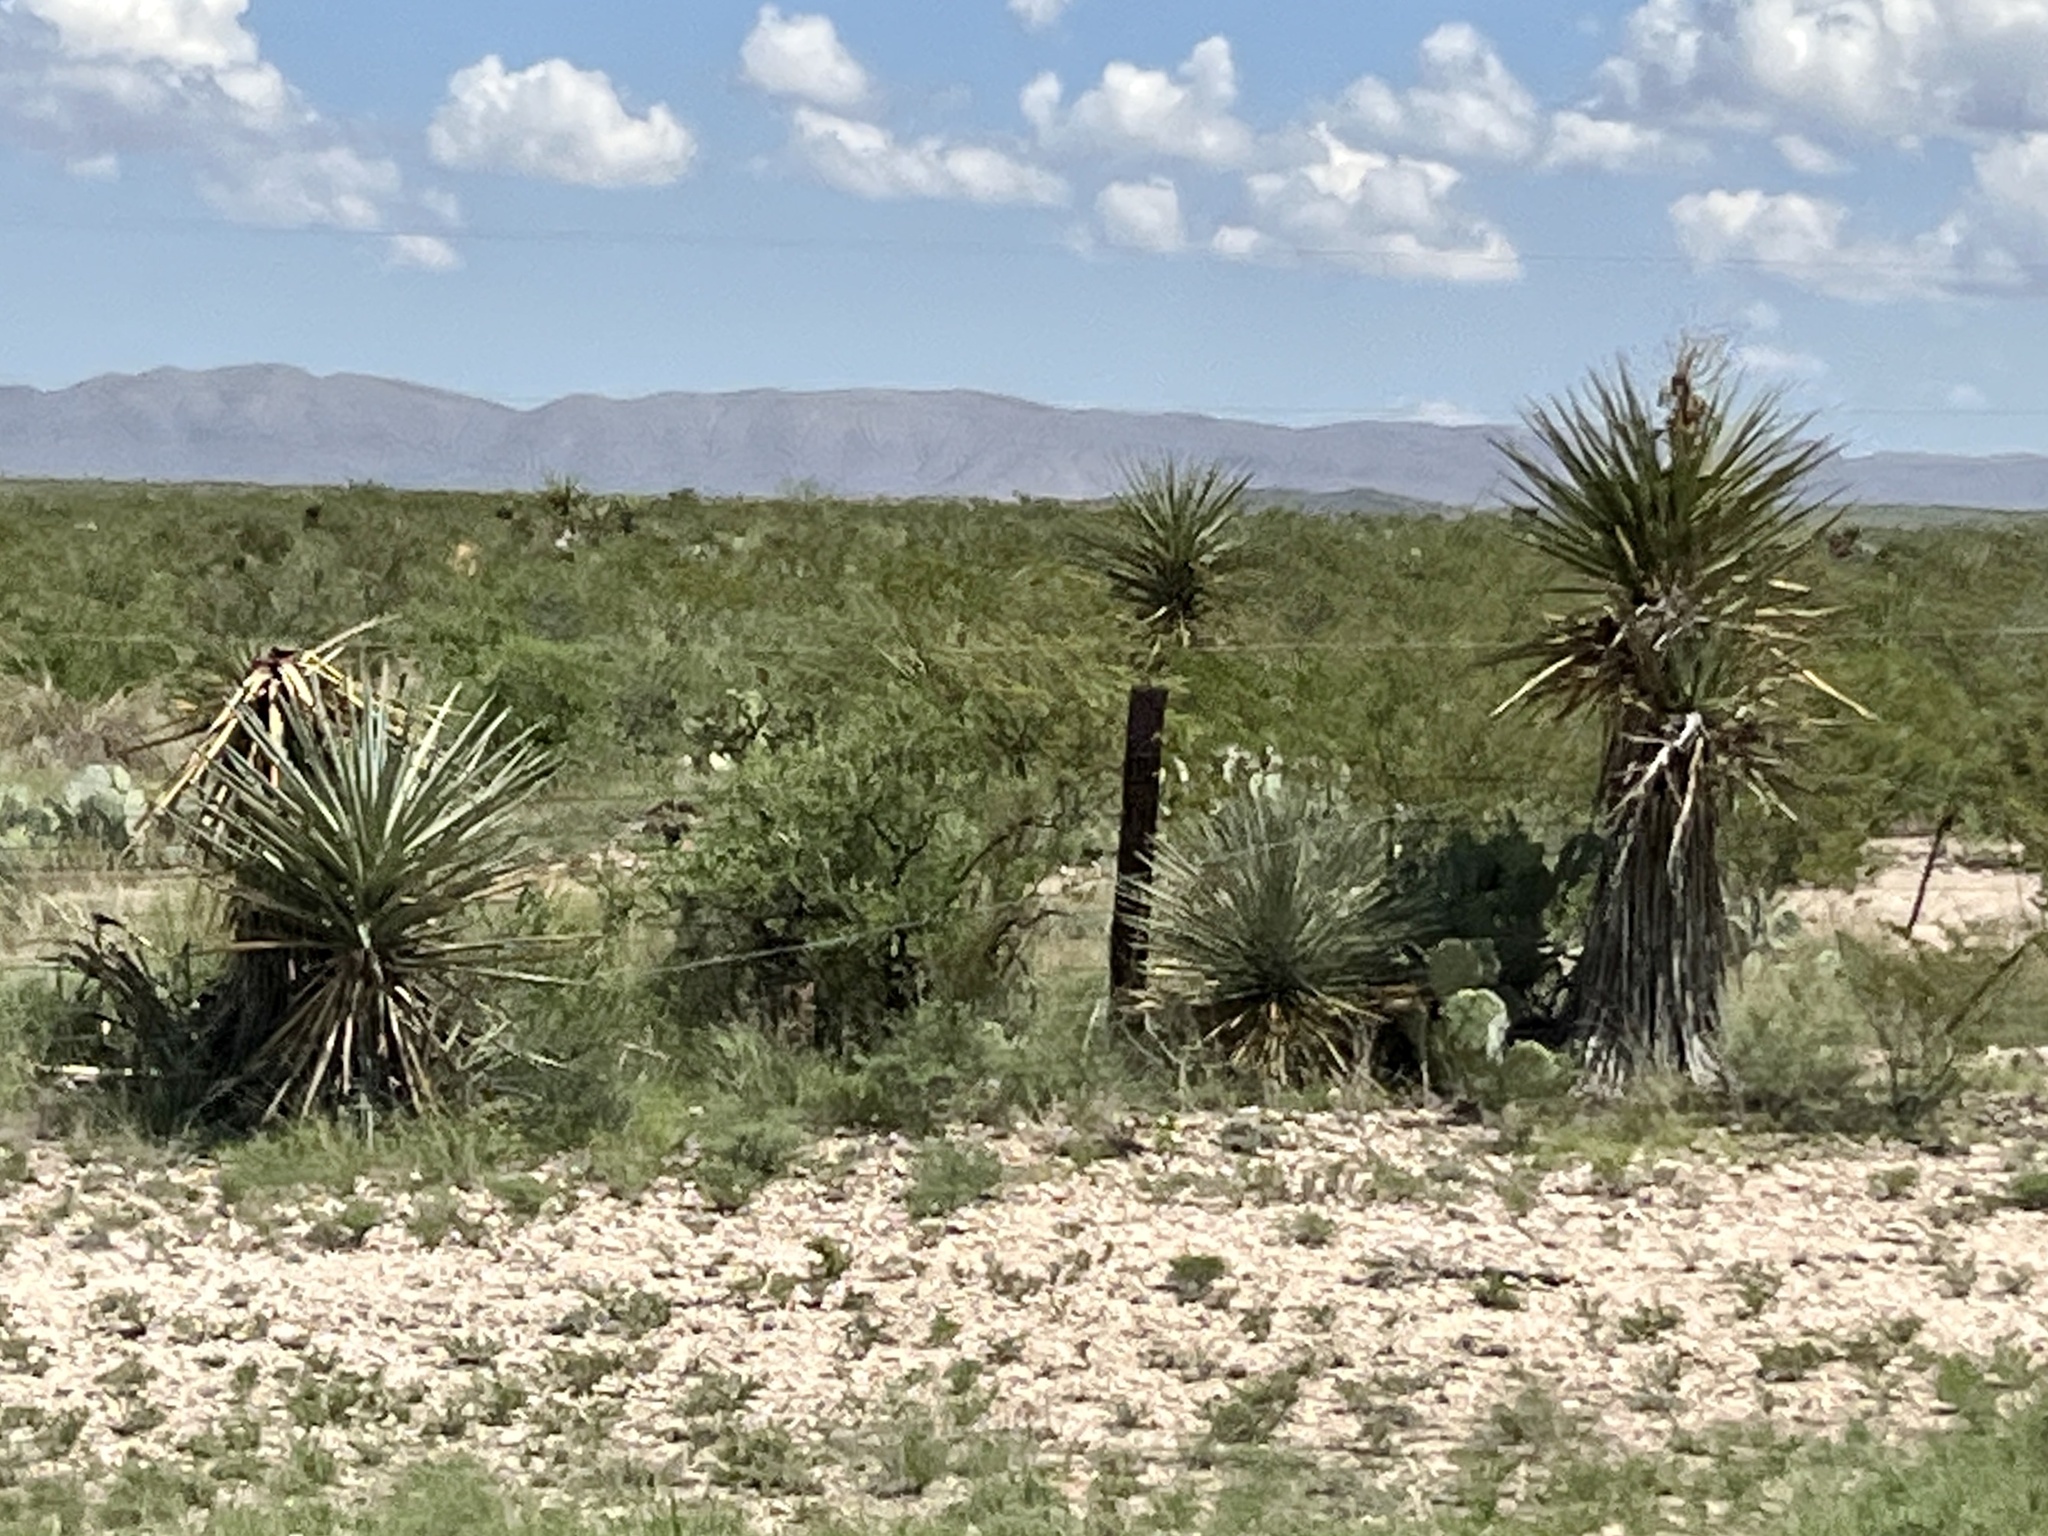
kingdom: Plantae
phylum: Tracheophyta
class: Liliopsida
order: Asparagales
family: Asparagaceae
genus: Yucca
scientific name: Yucca treculiana
